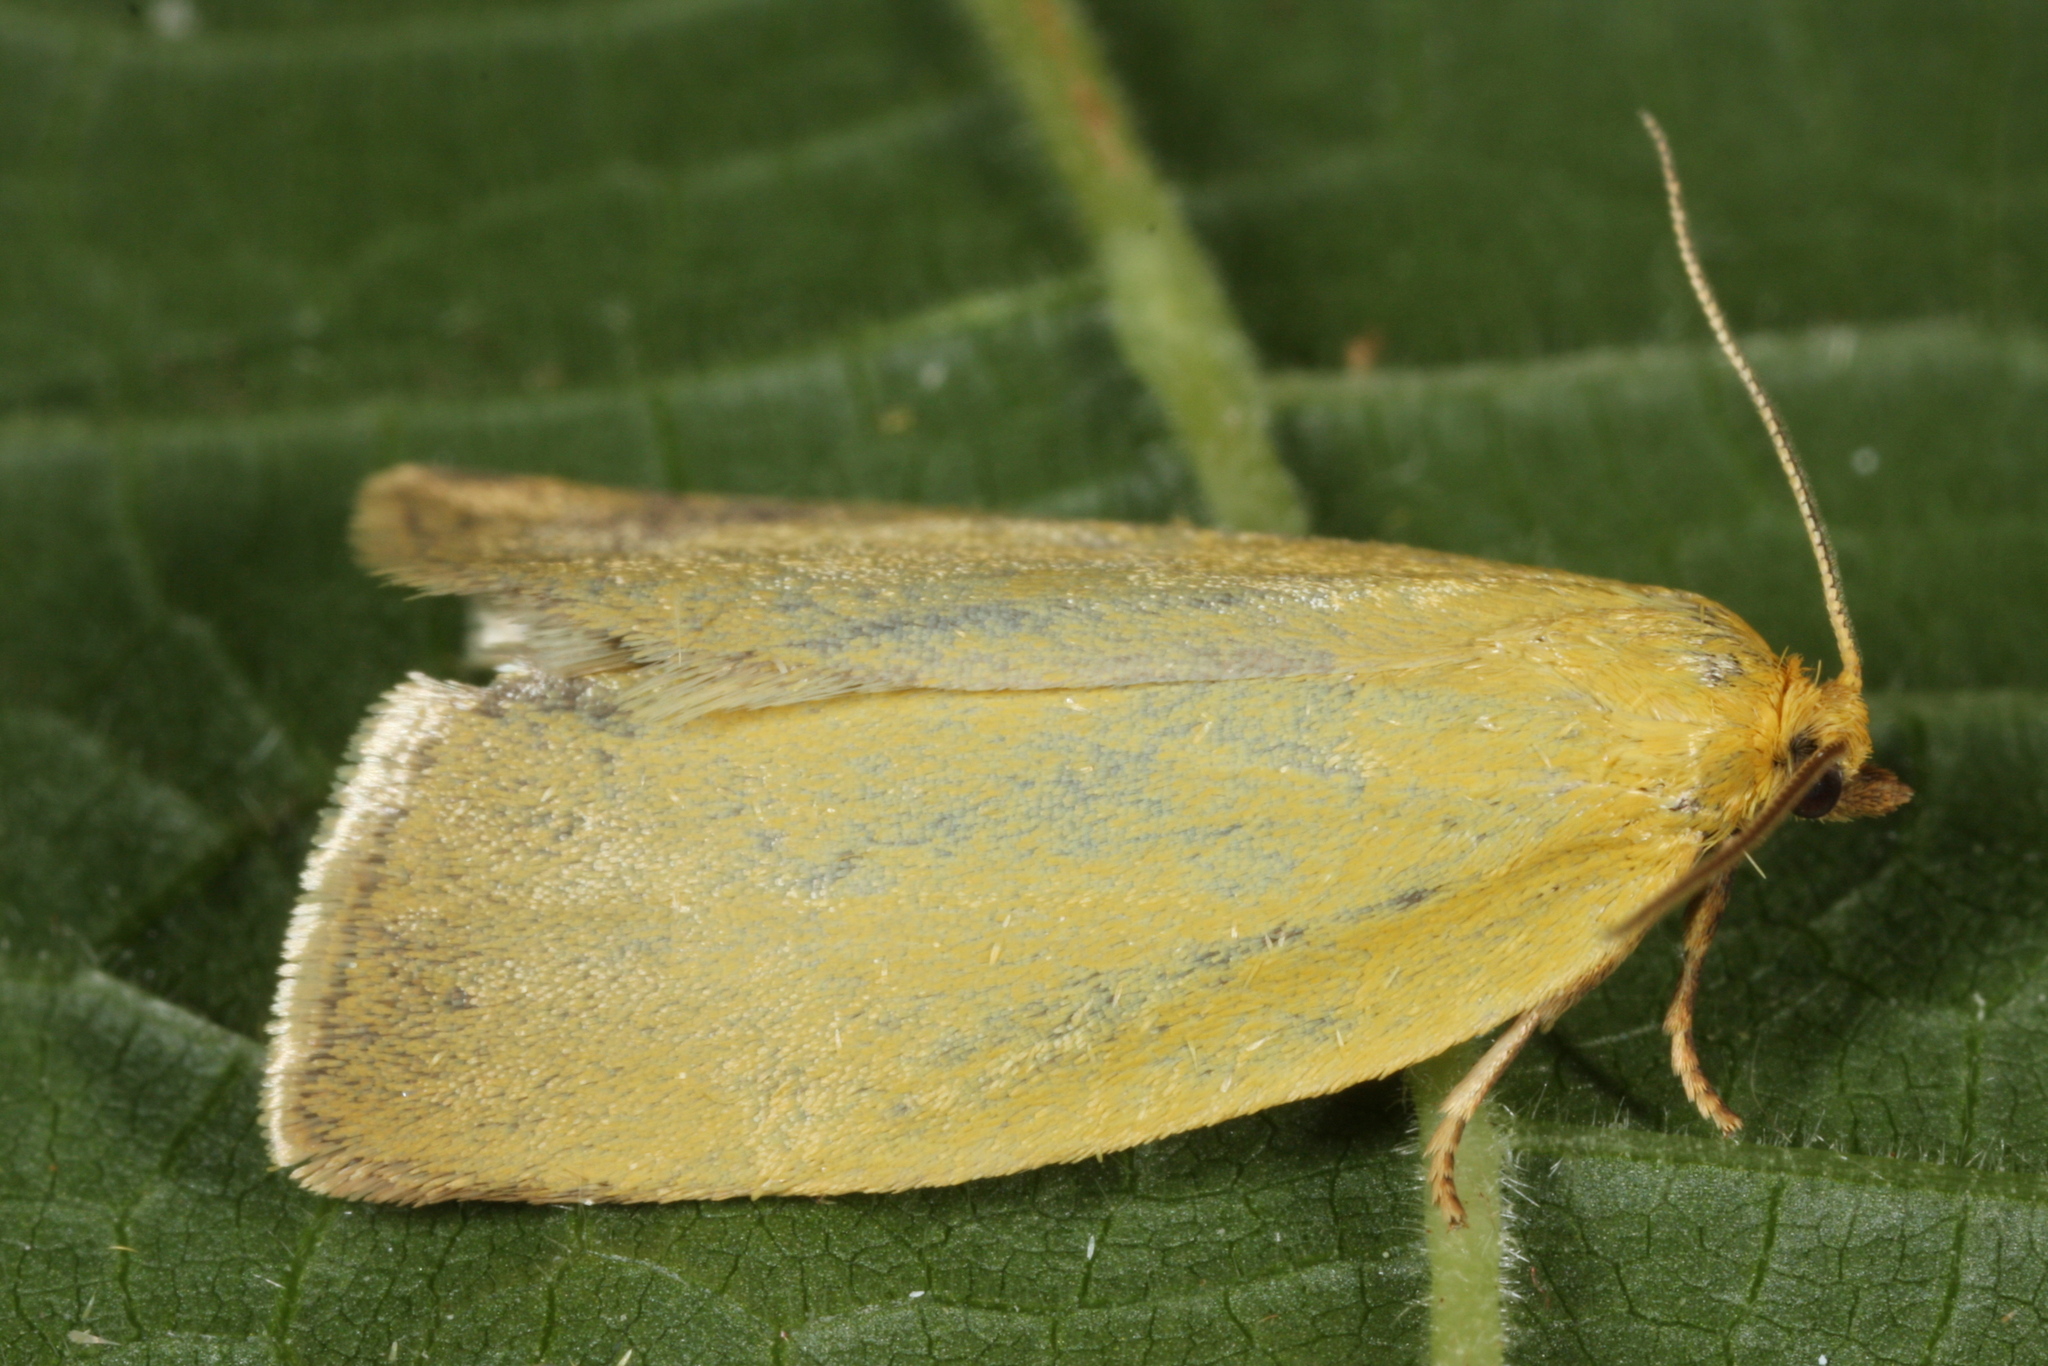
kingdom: Animalia
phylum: Arthropoda
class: Insecta
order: Lepidoptera
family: Tortricidae
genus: Aphelia
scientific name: Aphelia unitana
